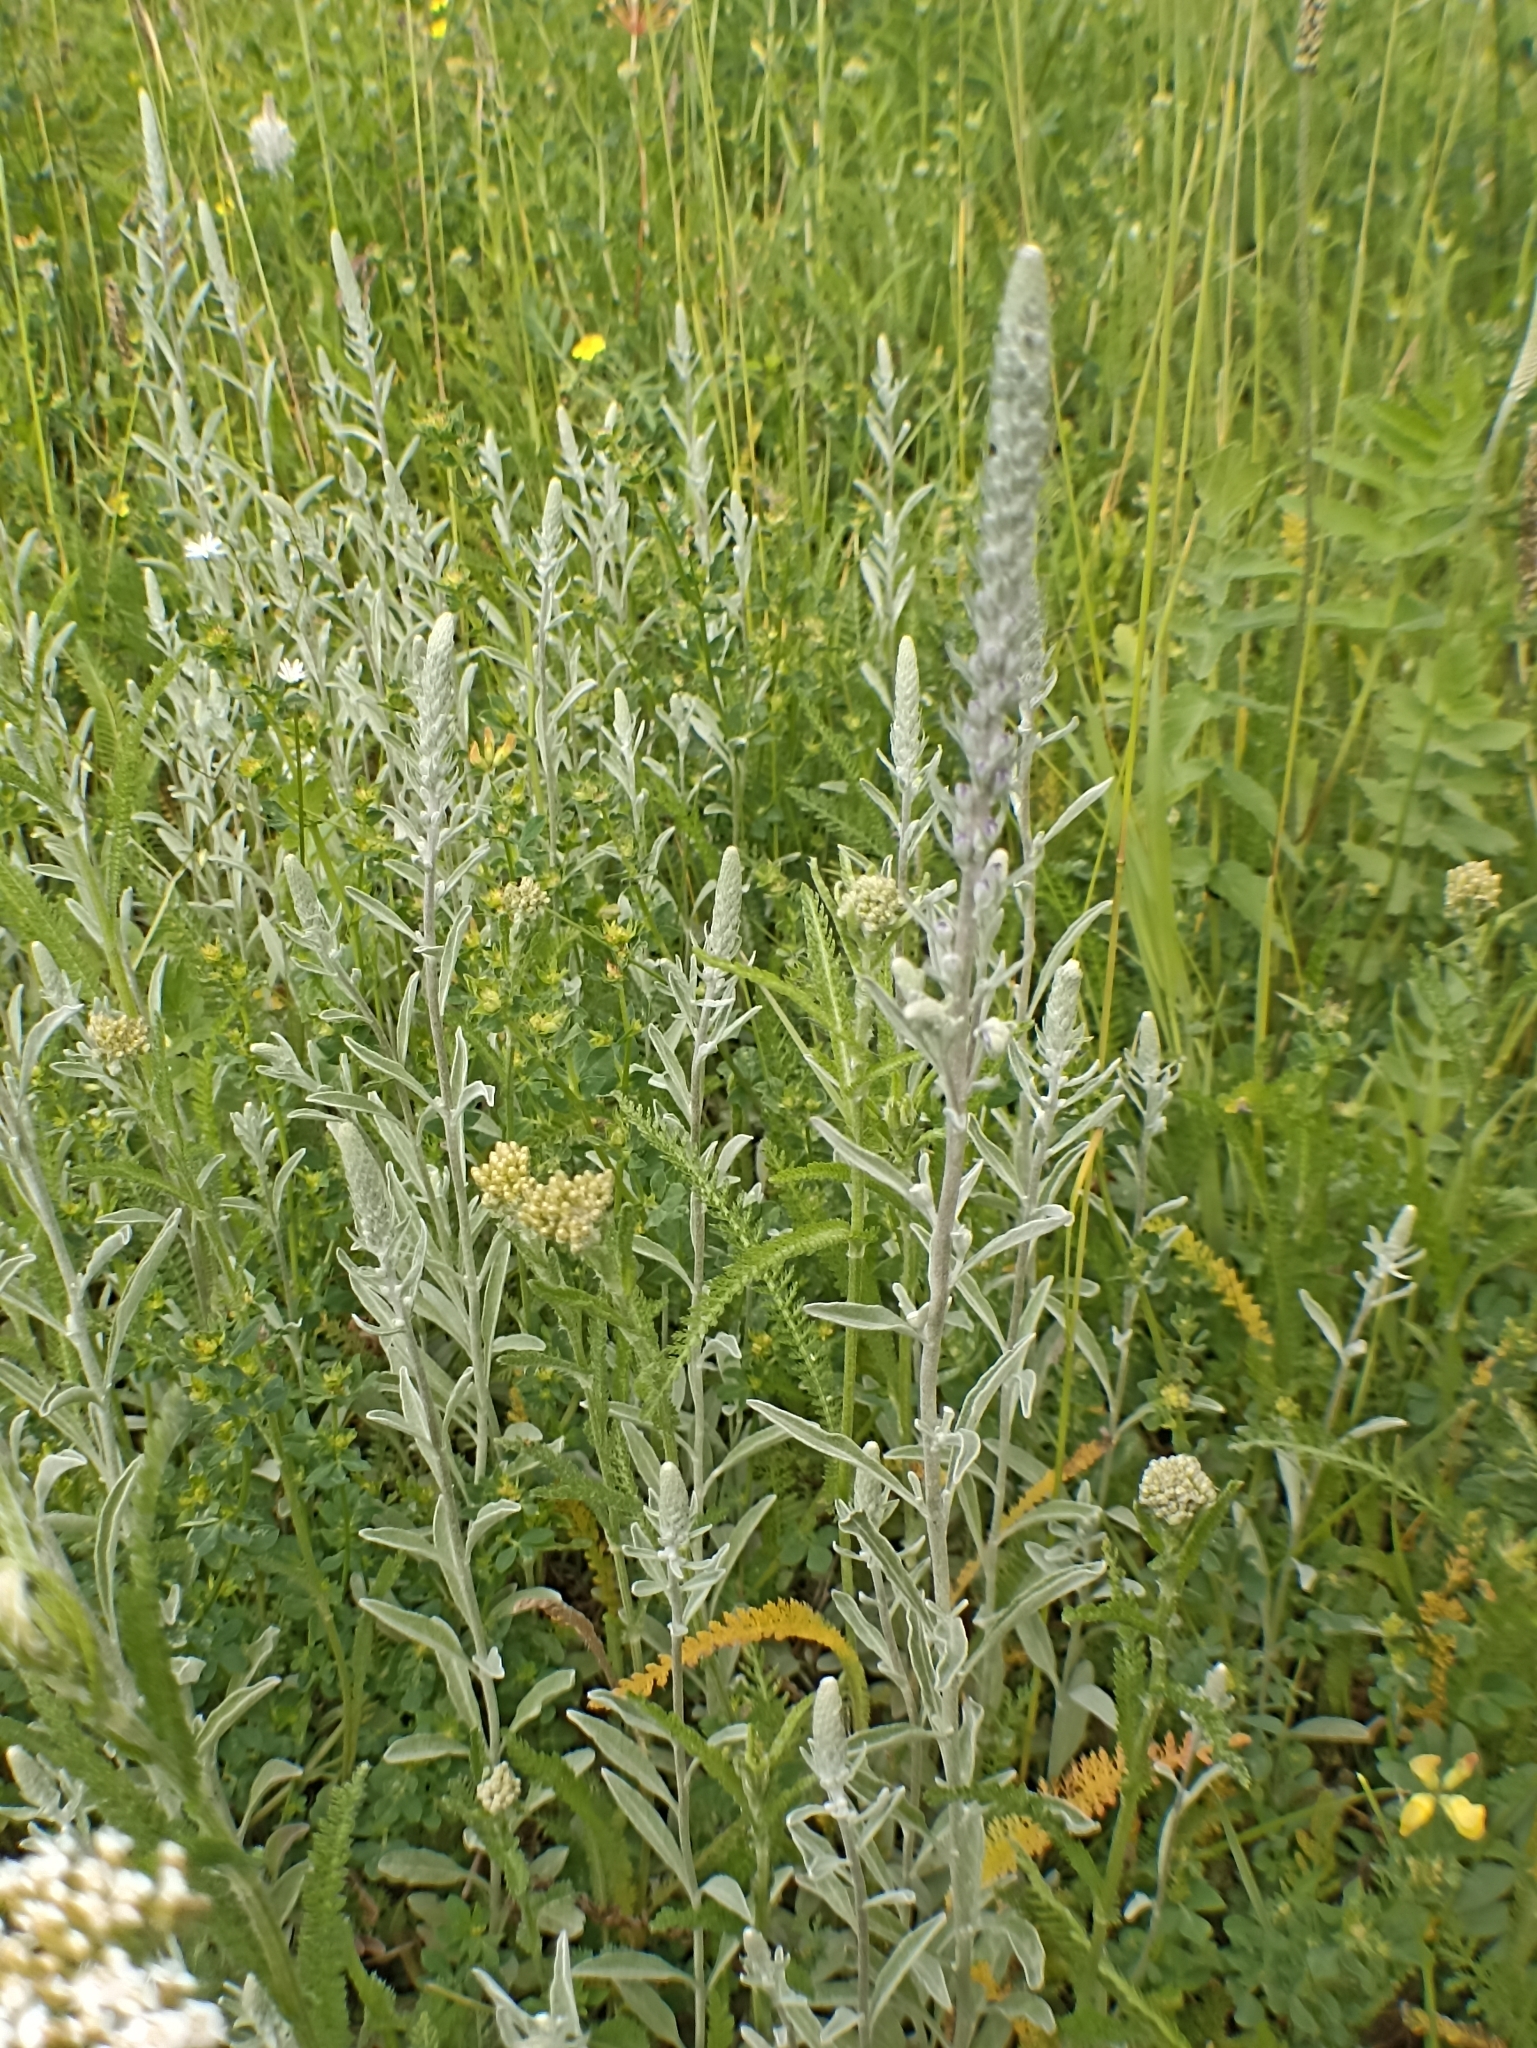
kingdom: Plantae
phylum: Tracheophyta
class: Magnoliopsida
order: Lamiales
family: Plantaginaceae
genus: Veronica
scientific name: Veronica incana
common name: Silver speedwell
